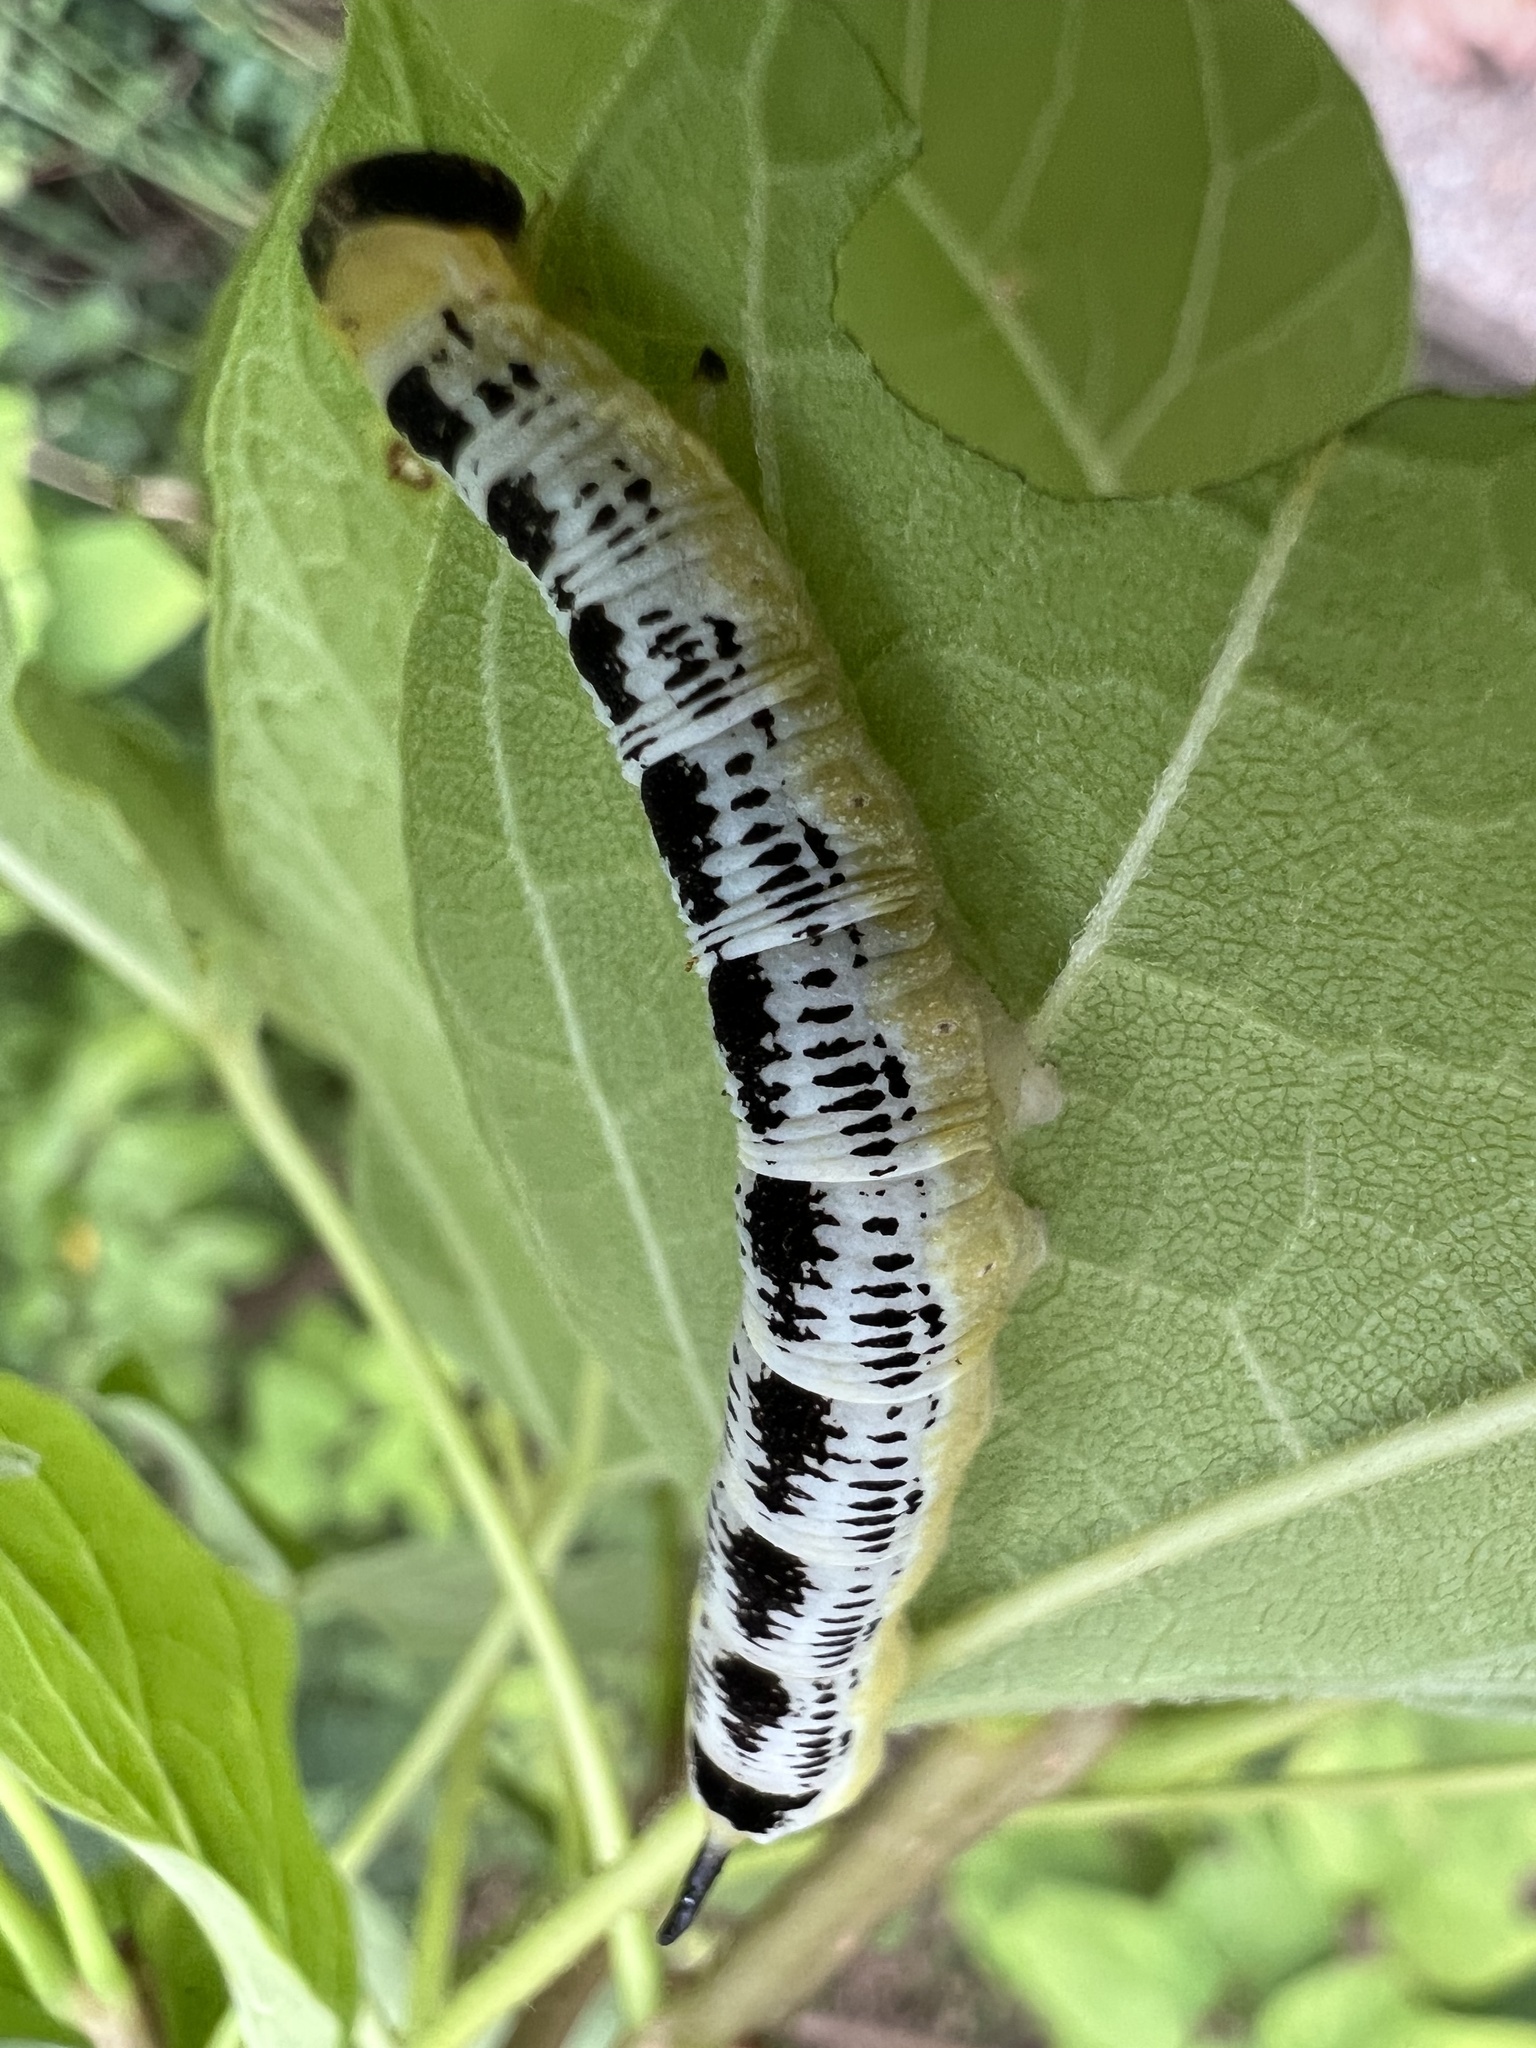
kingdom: Animalia
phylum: Arthropoda
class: Insecta
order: Lepidoptera
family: Sphingidae
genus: Ceratomia
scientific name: Ceratomia catalpae
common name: Catalpa hornworm
